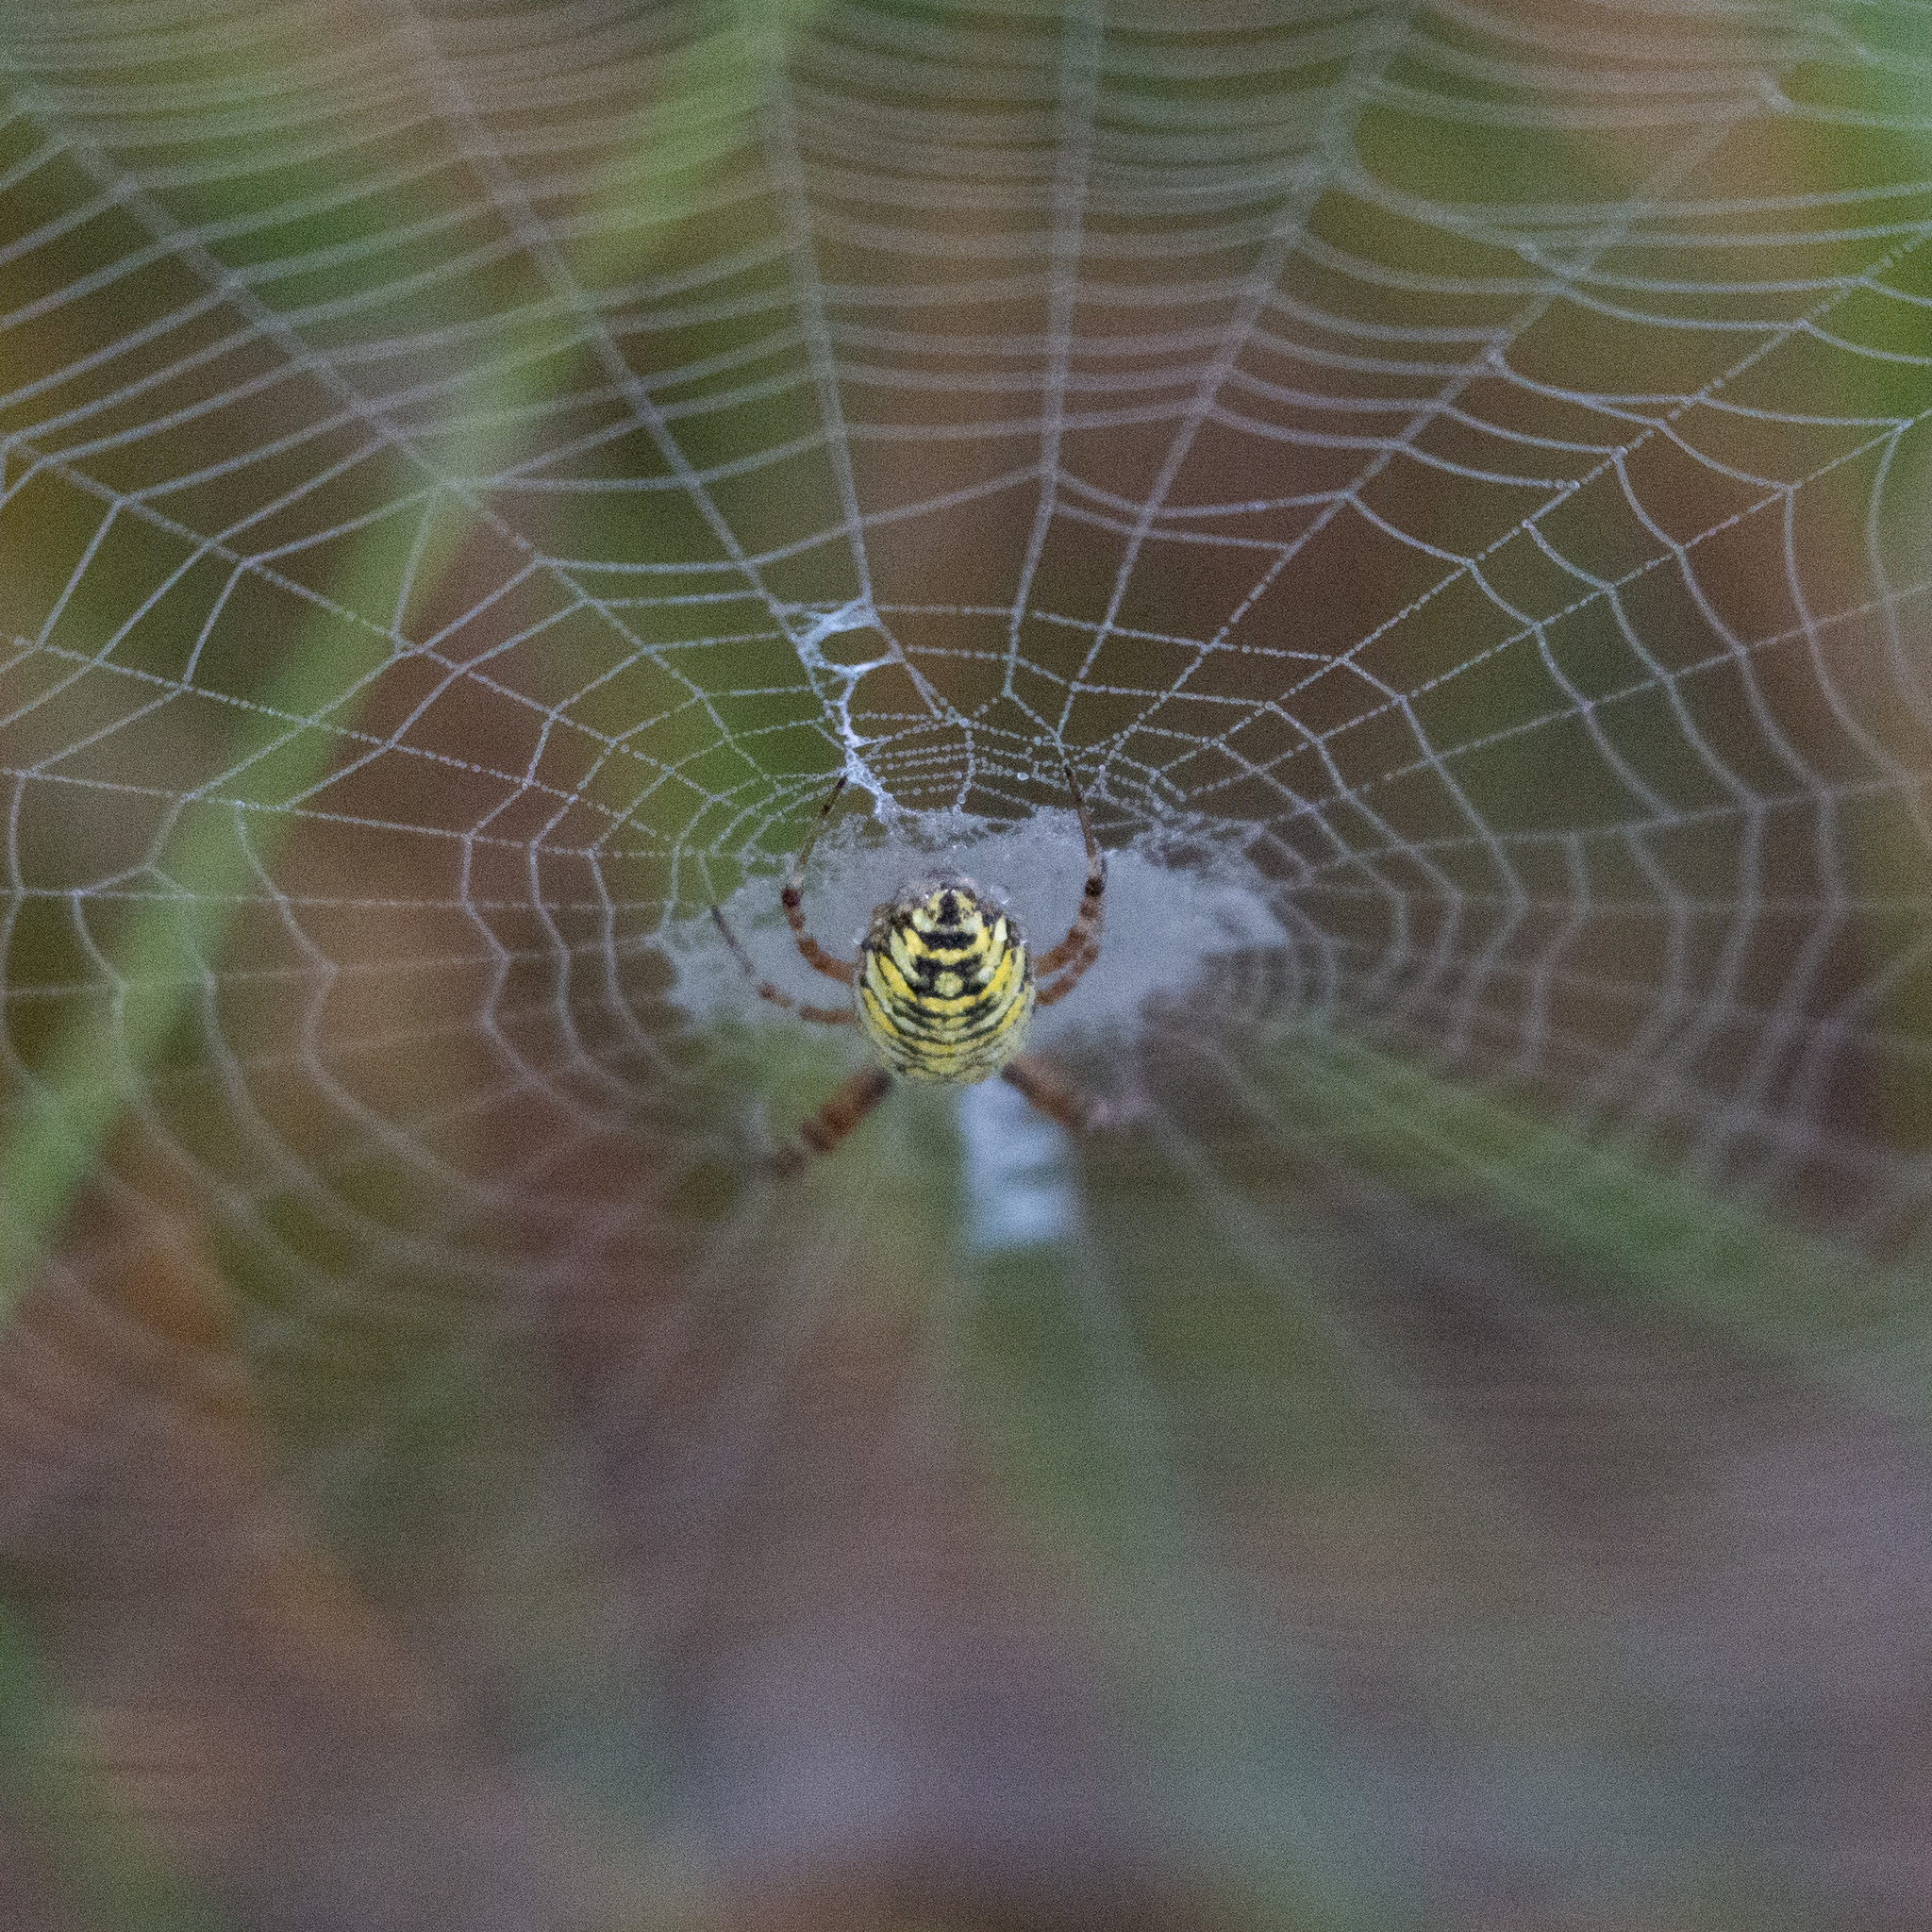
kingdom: Animalia
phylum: Arthropoda
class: Arachnida
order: Araneae
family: Araneidae
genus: Argiope
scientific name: Argiope bruennichi
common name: Wasp spider
